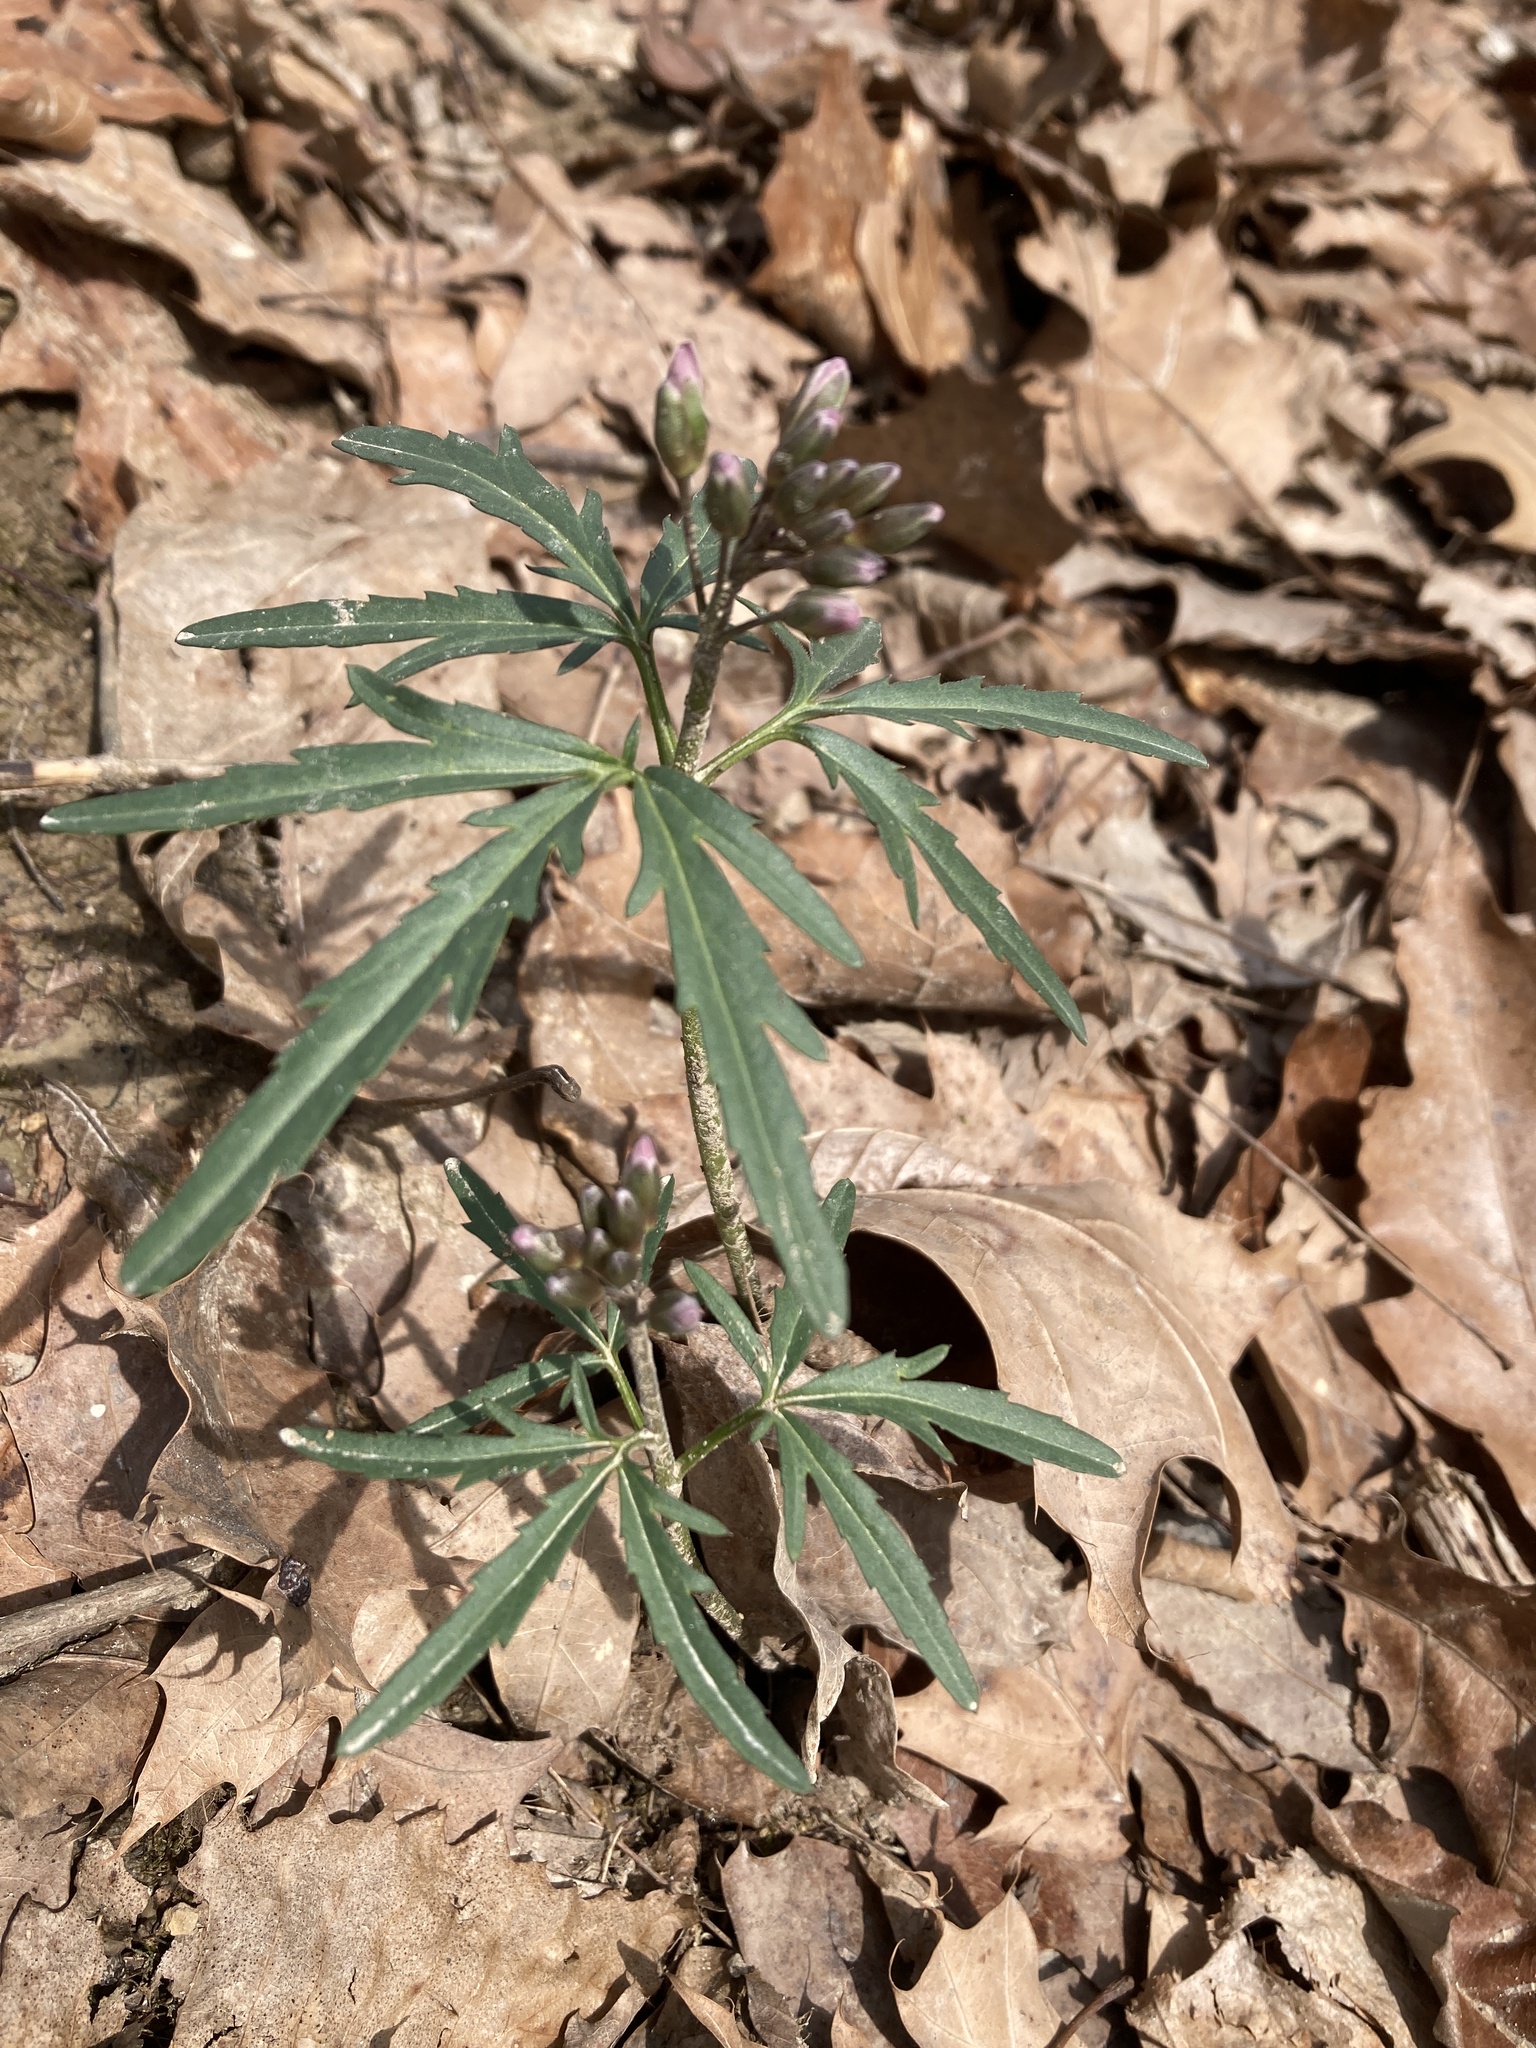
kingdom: Plantae
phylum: Tracheophyta
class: Magnoliopsida
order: Brassicales
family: Brassicaceae
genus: Cardamine
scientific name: Cardamine concatenata
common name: Cut-leaf toothcup
